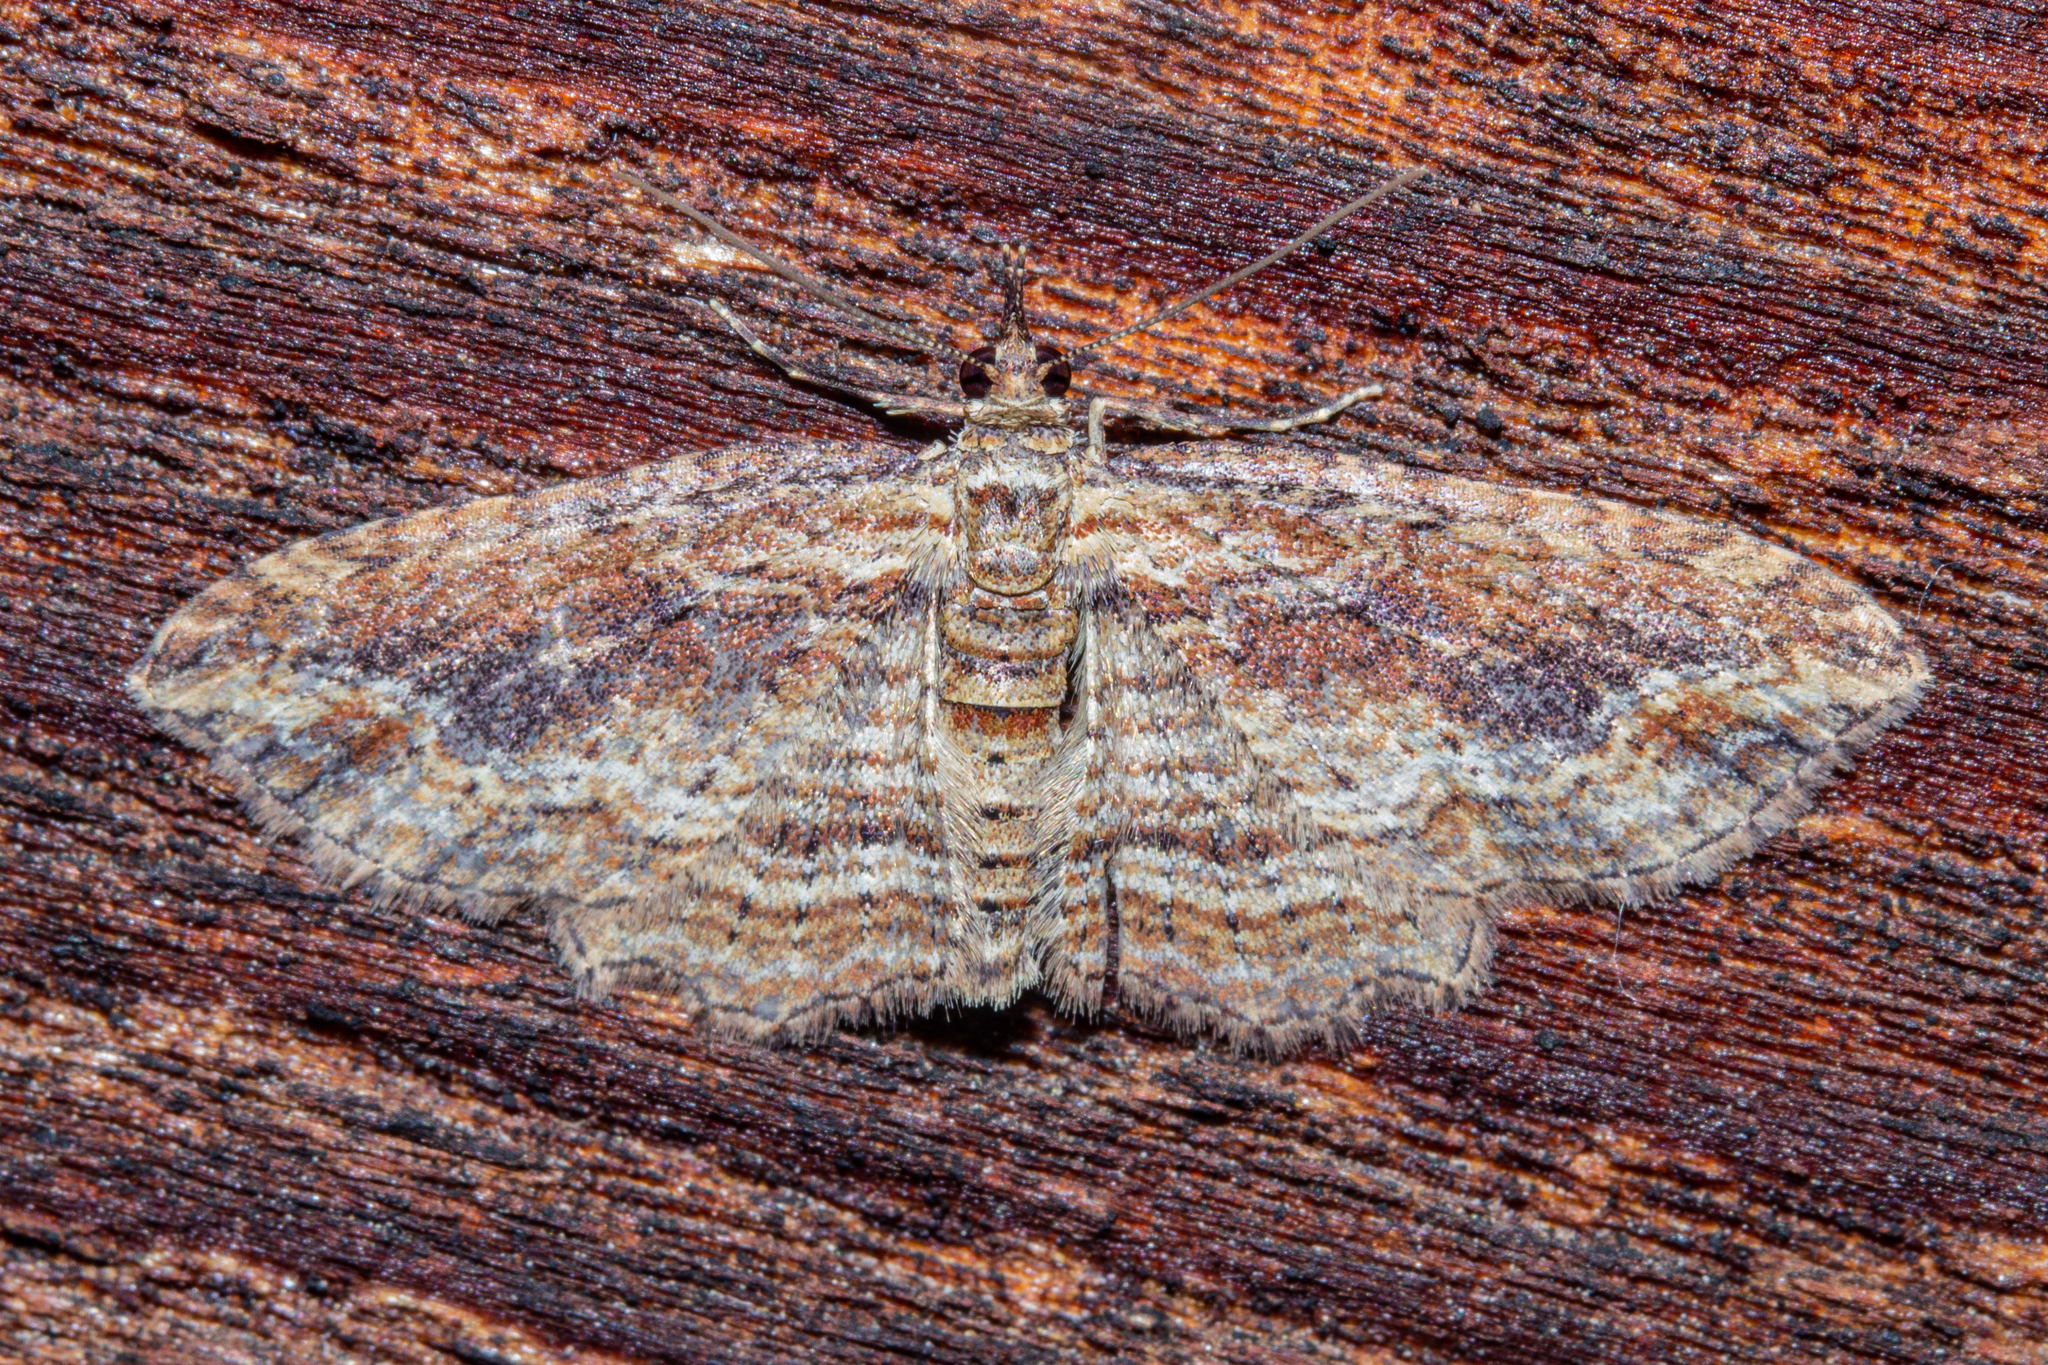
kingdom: Animalia
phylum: Arthropoda
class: Insecta
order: Lepidoptera
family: Geometridae
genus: Chloroclystis
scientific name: Chloroclystis filata
